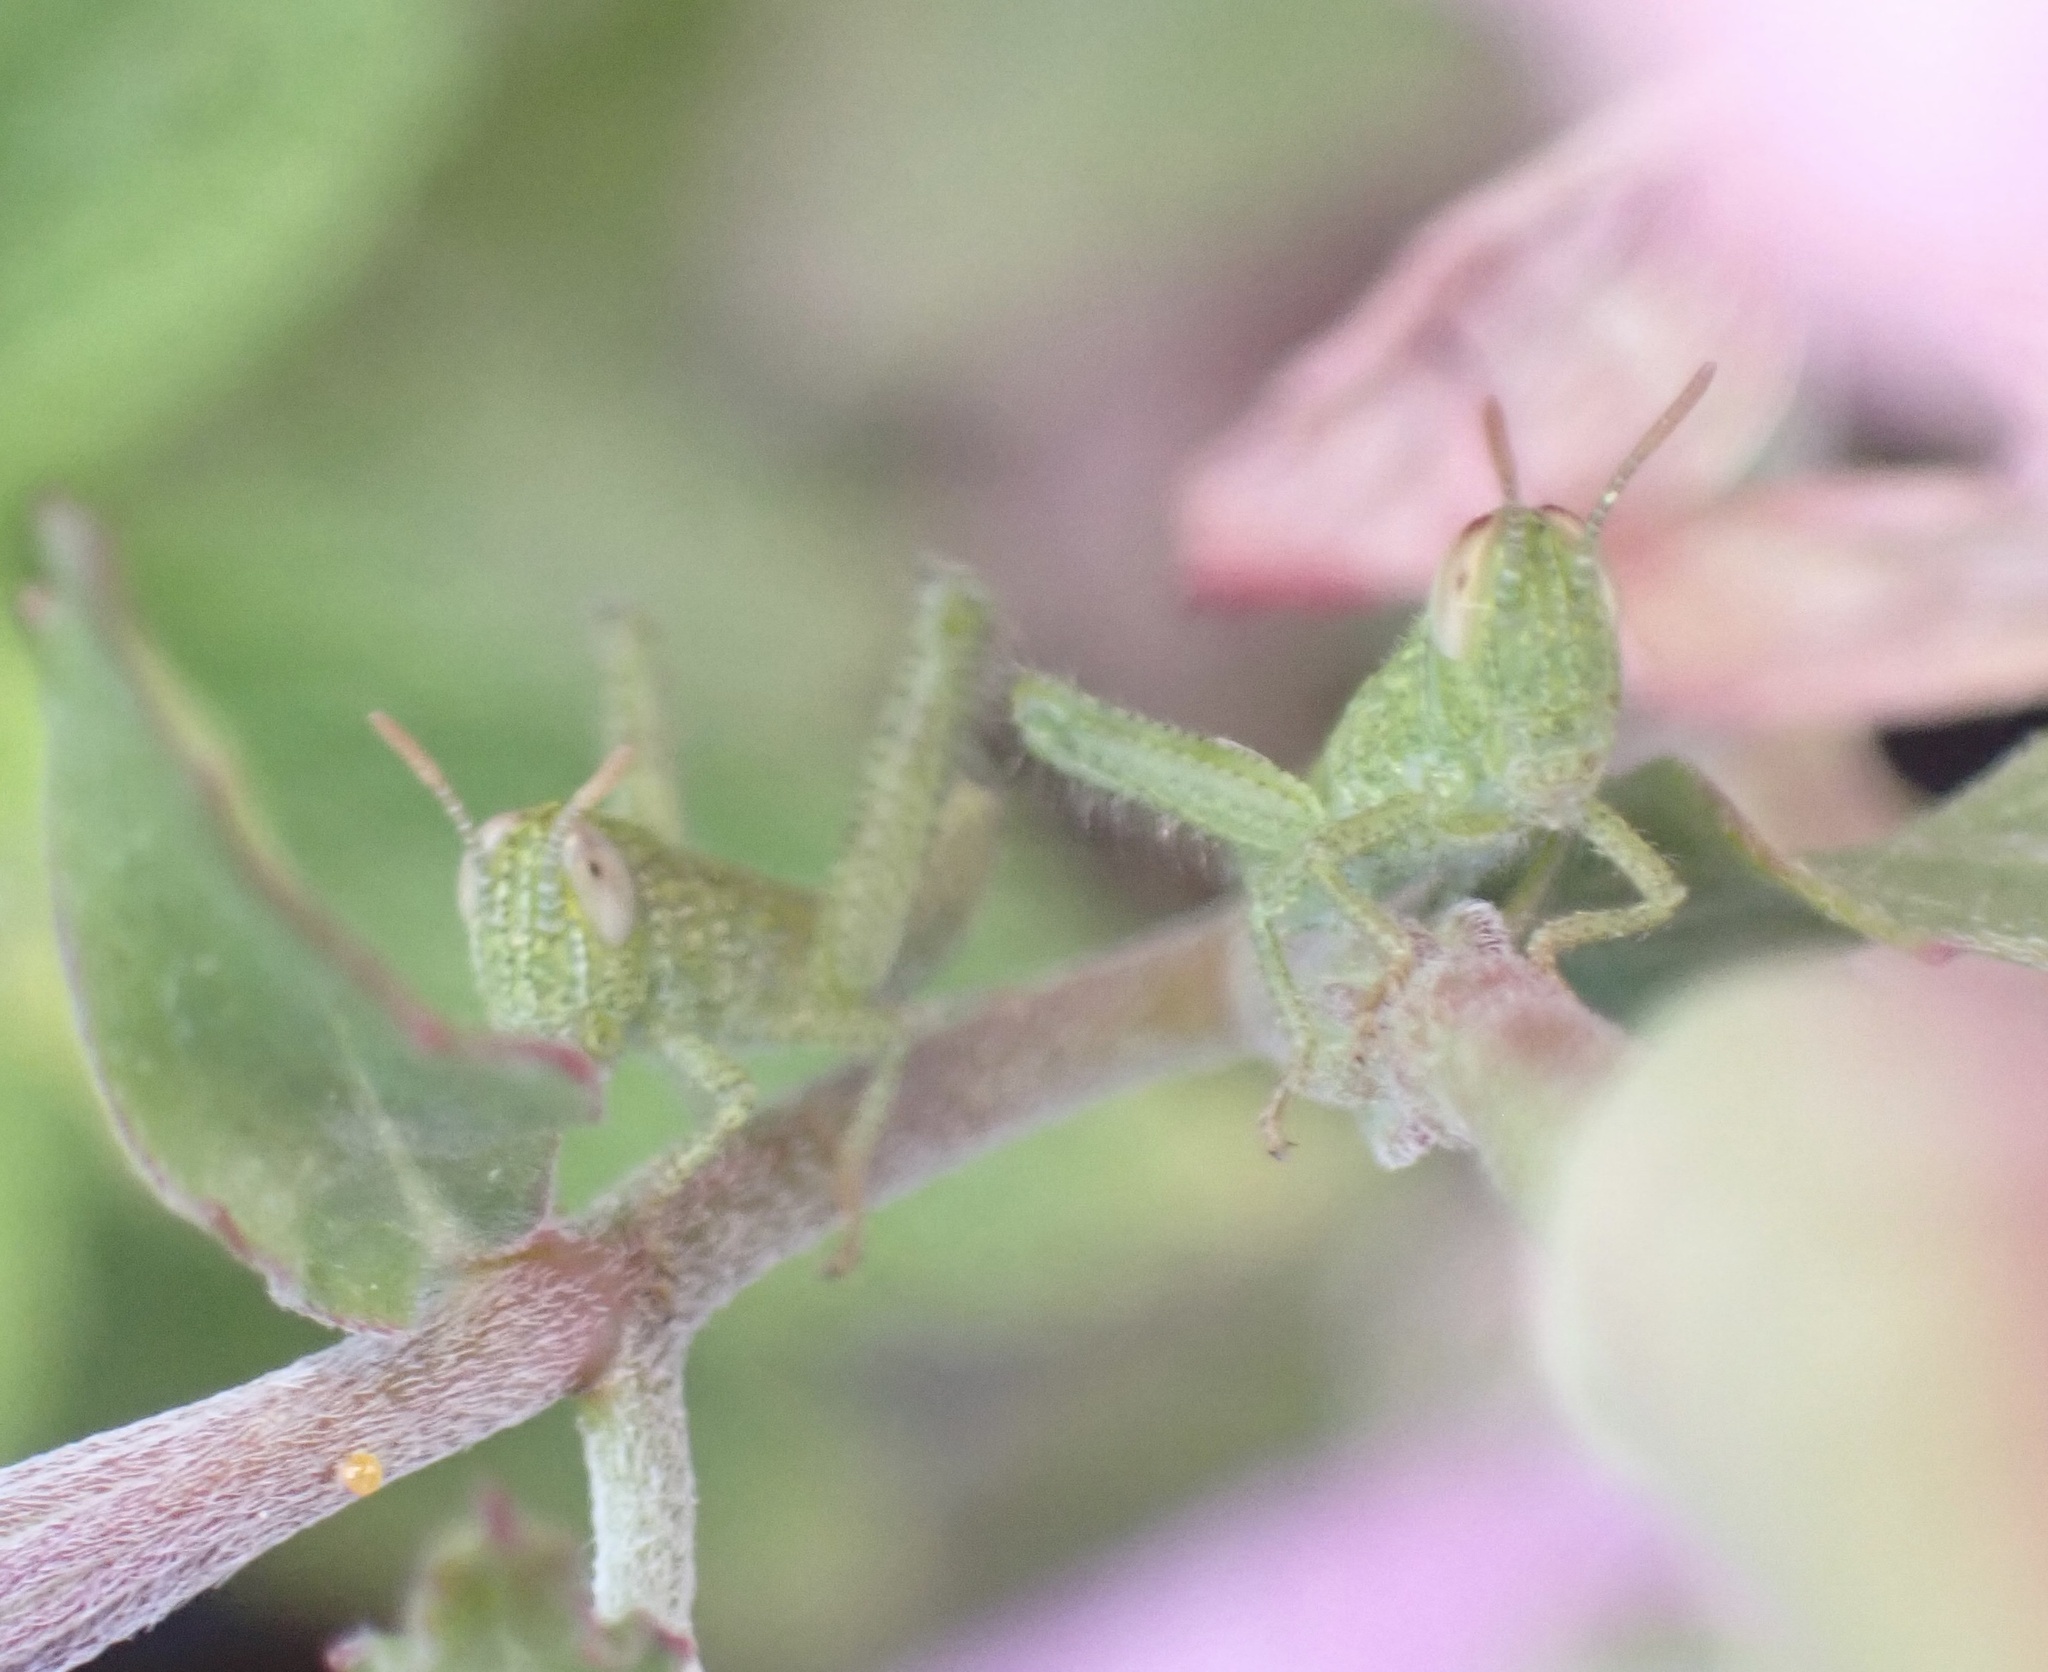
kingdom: Animalia
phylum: Arthropoda
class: Insecta
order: Orthoptera
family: Acrididae
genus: Pezotettix
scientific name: Pezotettix giornae
